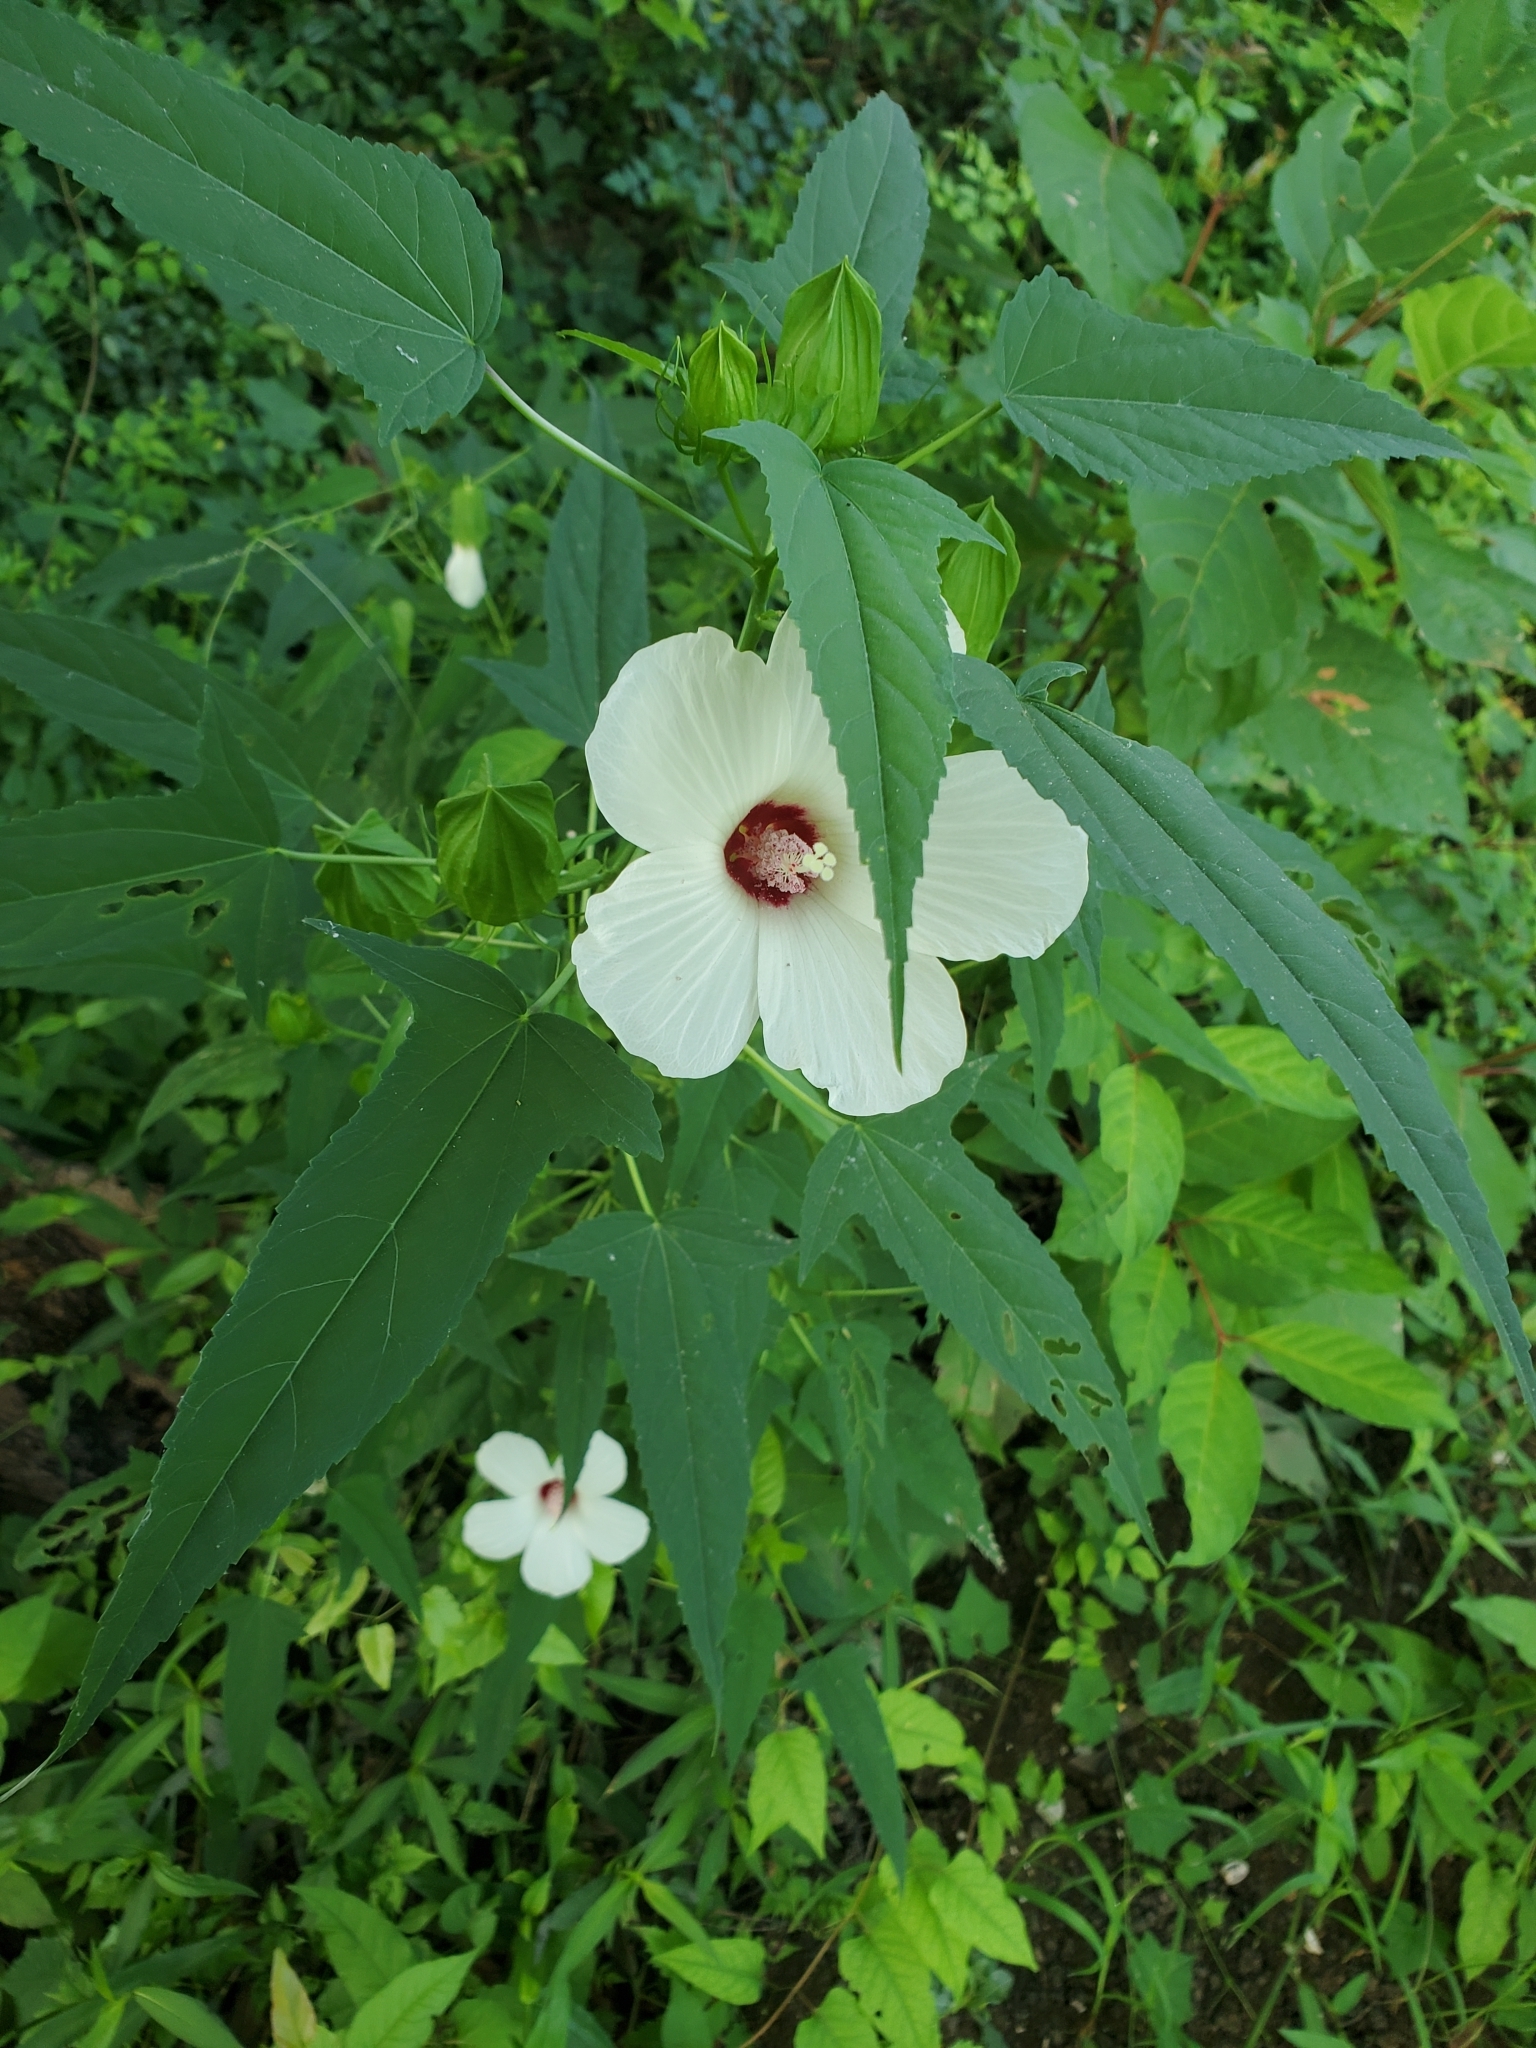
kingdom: Plantae
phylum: Tracheophyta
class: Magnoliopsida
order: Malvales
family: Malvaceae
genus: Hibiscus
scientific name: Hibiscus laevis
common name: Scarlet rose-mallow
